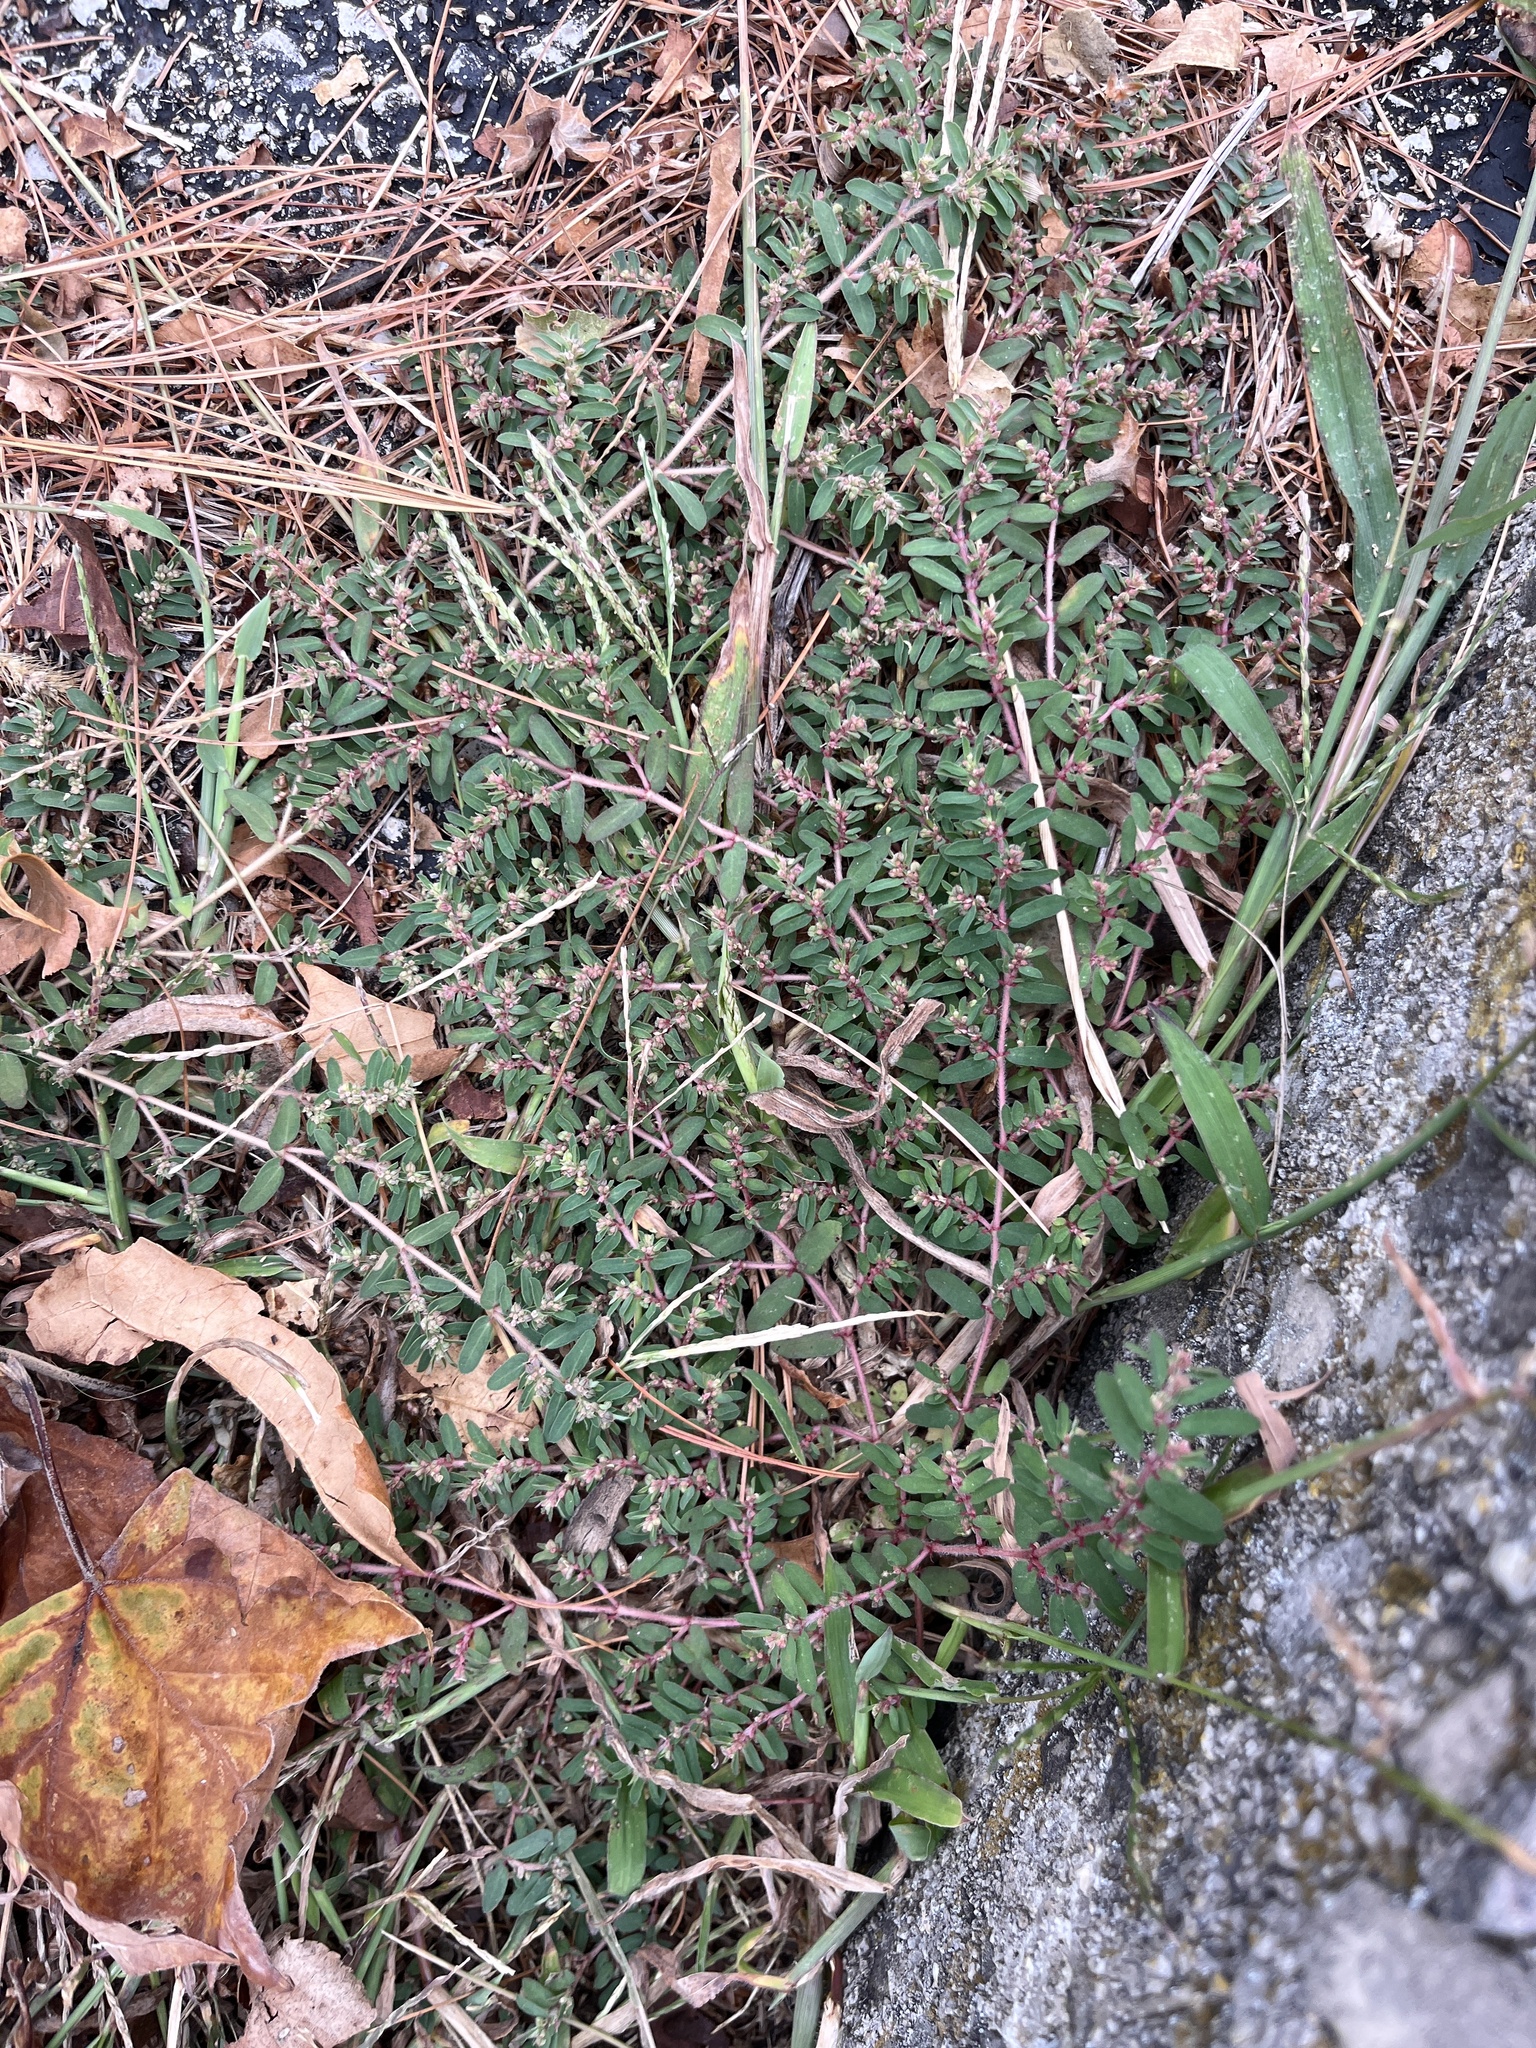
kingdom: Plantae
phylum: Tracheophyta
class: Magnoliopsida
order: Malpighiales
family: Euphorbiaceae
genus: Euphorbia
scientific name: Euphorbia maculata
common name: Spotted spurge
